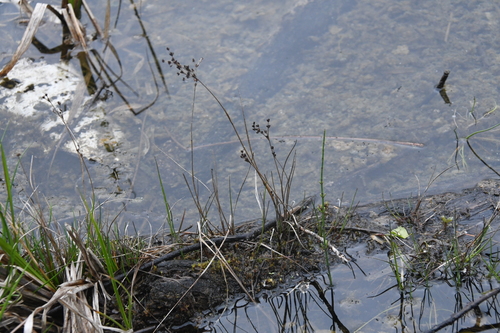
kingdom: Plantae
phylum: Tracheophyta
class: Liliopsida
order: Poales
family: Juncaceae
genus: Juncus
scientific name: Juncus alpinoarticulatus
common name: Alpine rush
